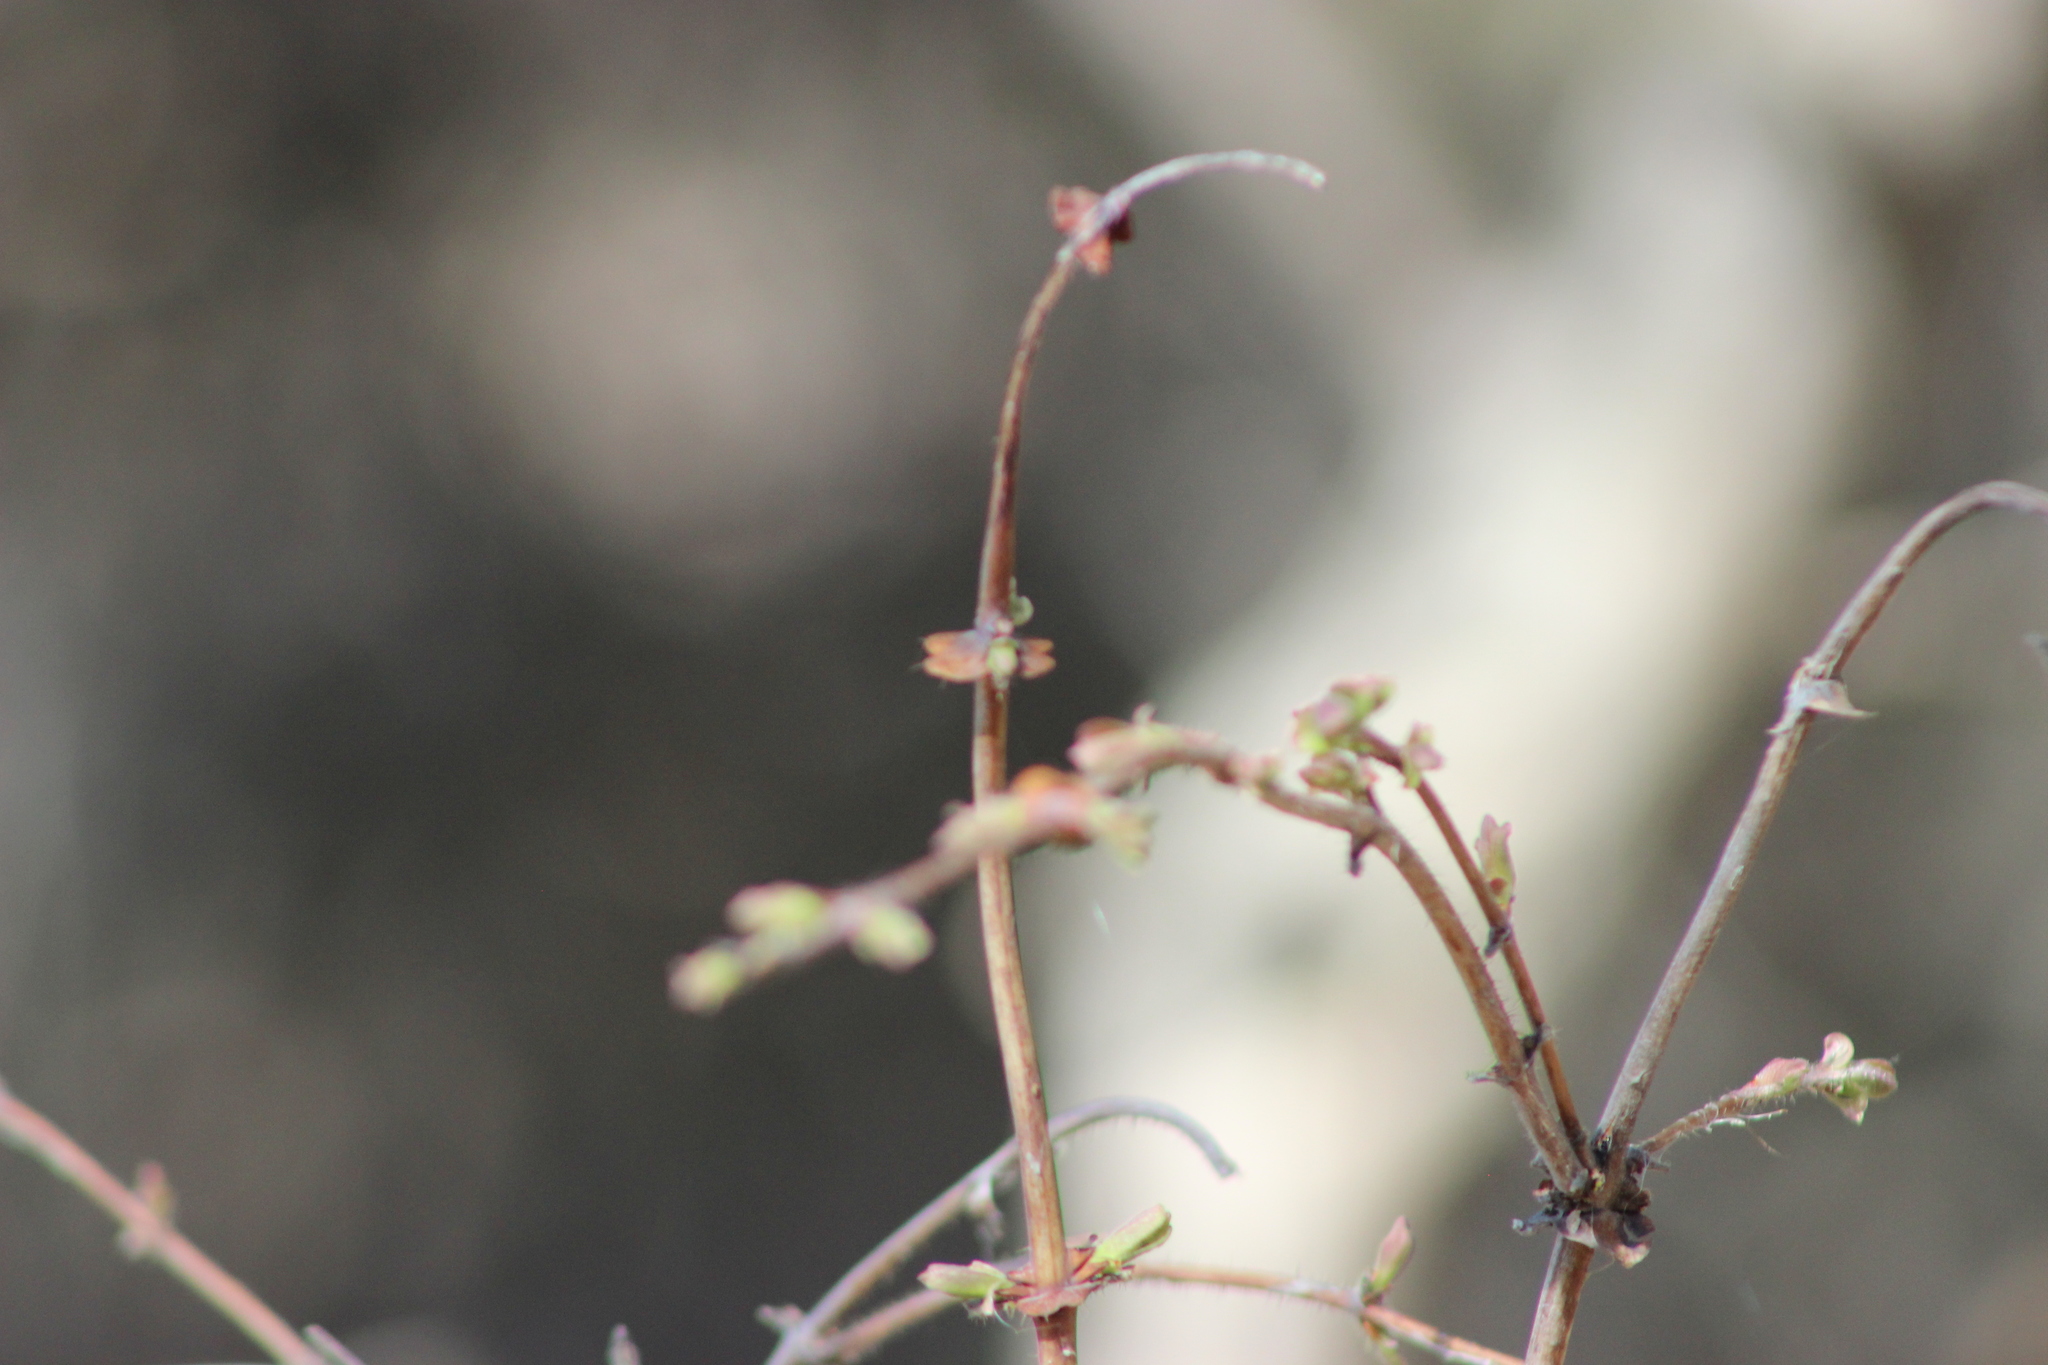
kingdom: Plantae
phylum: Tracheophyta
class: Magnoliopsida
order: Dipsacales
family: Caprifoliaceae
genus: Lonicera
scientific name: Lonicera caerulea
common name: Blue honeysuckle
